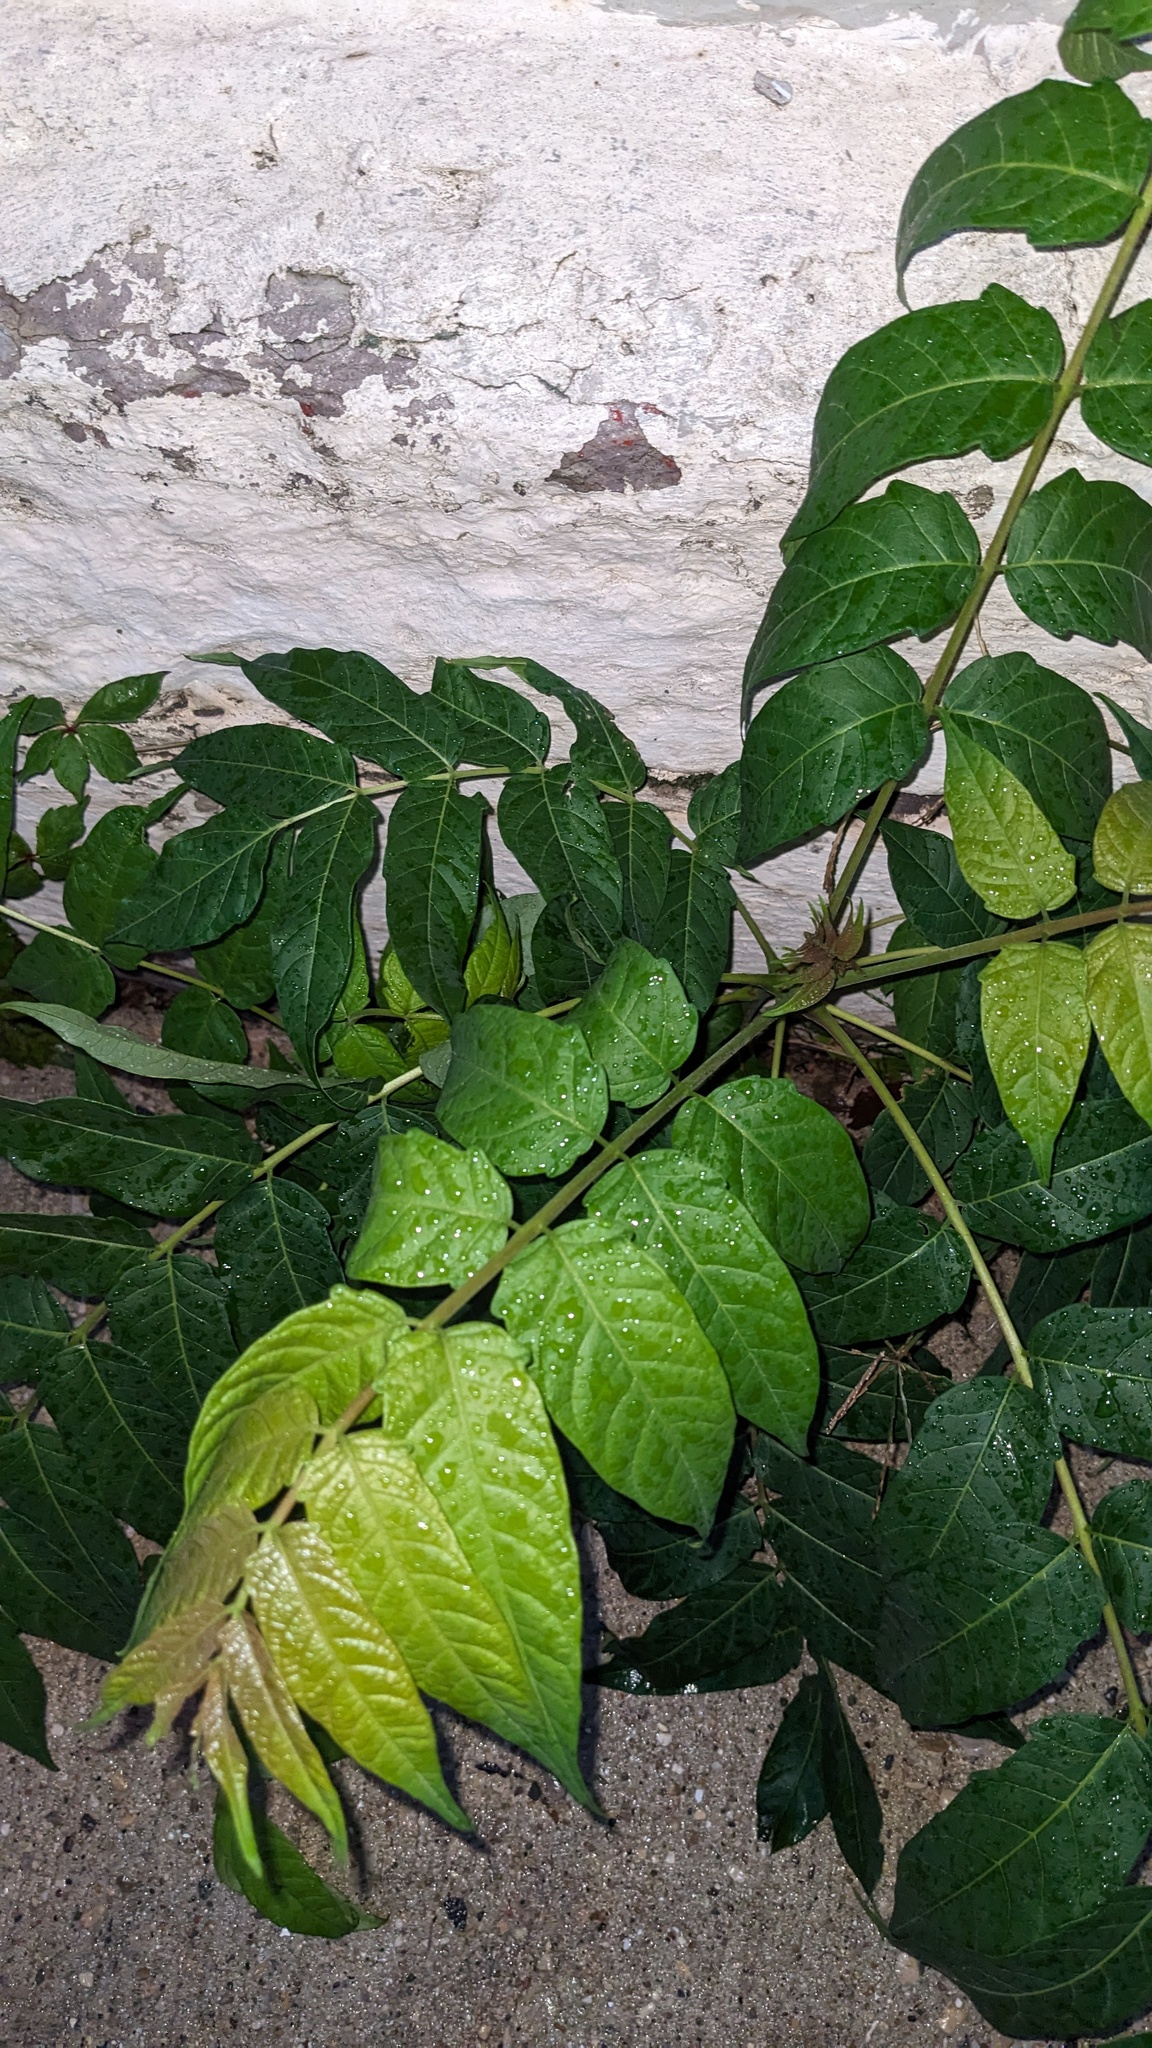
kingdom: Plantae
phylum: Tracheophyta
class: Magnoliopsida
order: Sapindales
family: Simaroubaceae
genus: Ailanthus
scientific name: Ailanthus altissima
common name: Tree-of-heaven
